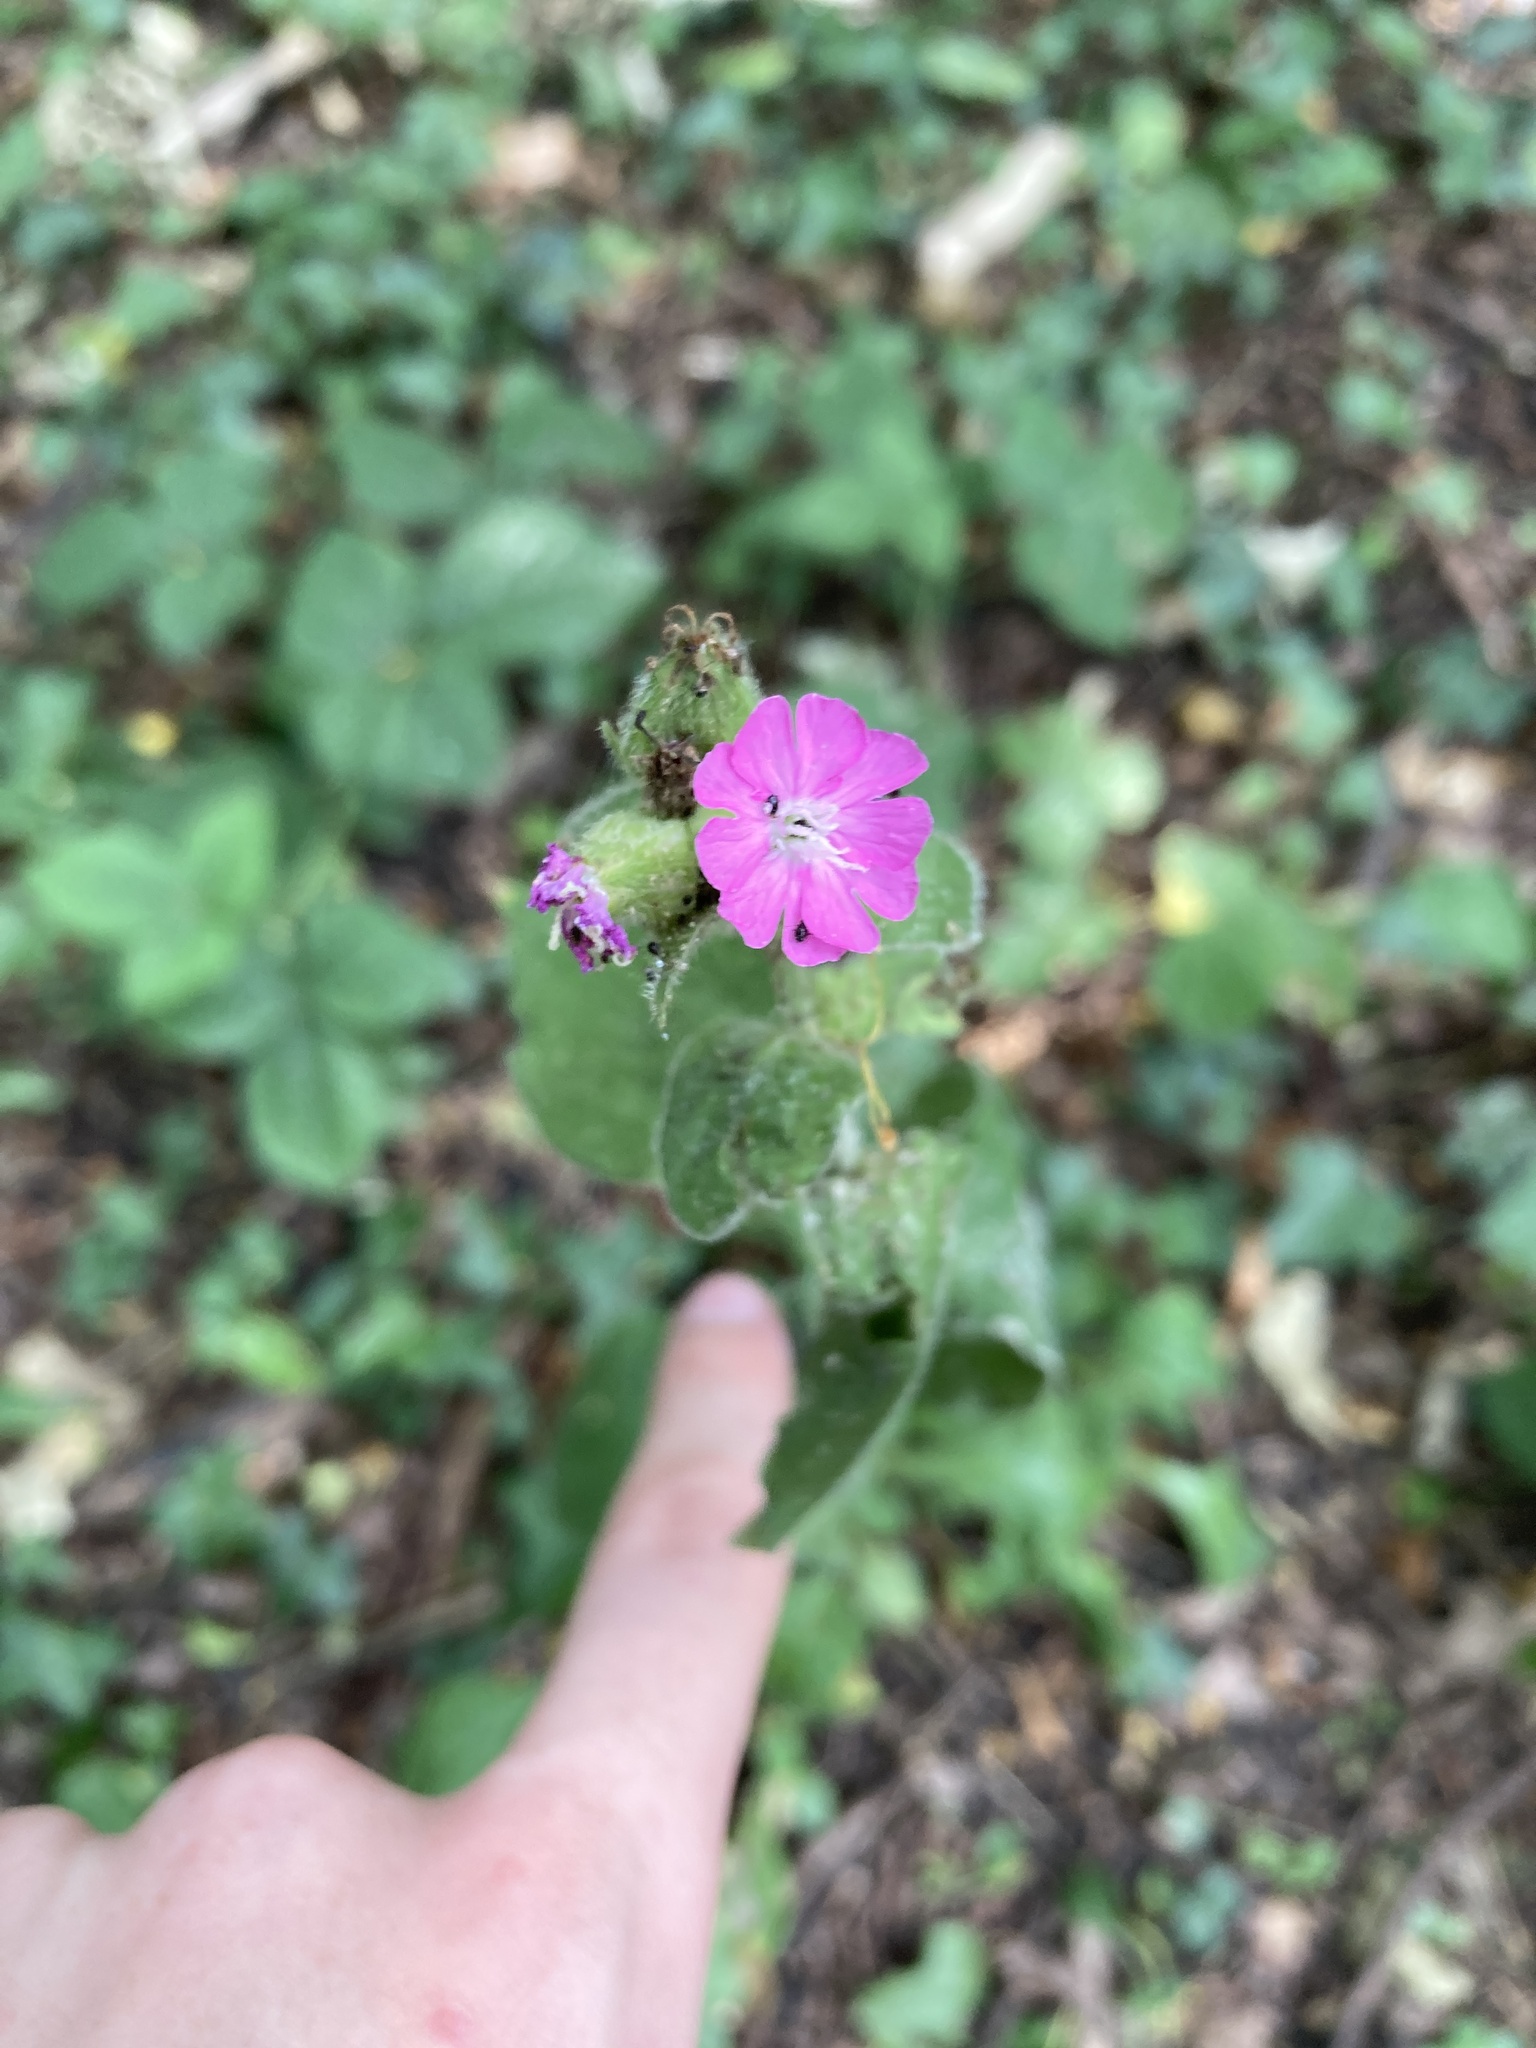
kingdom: Plantae
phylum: Tracheophyta
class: Magnoliopsida
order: Caryophyllales
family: Caryophyllaceae
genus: Silene
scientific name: Silene dioica
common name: Red campion
